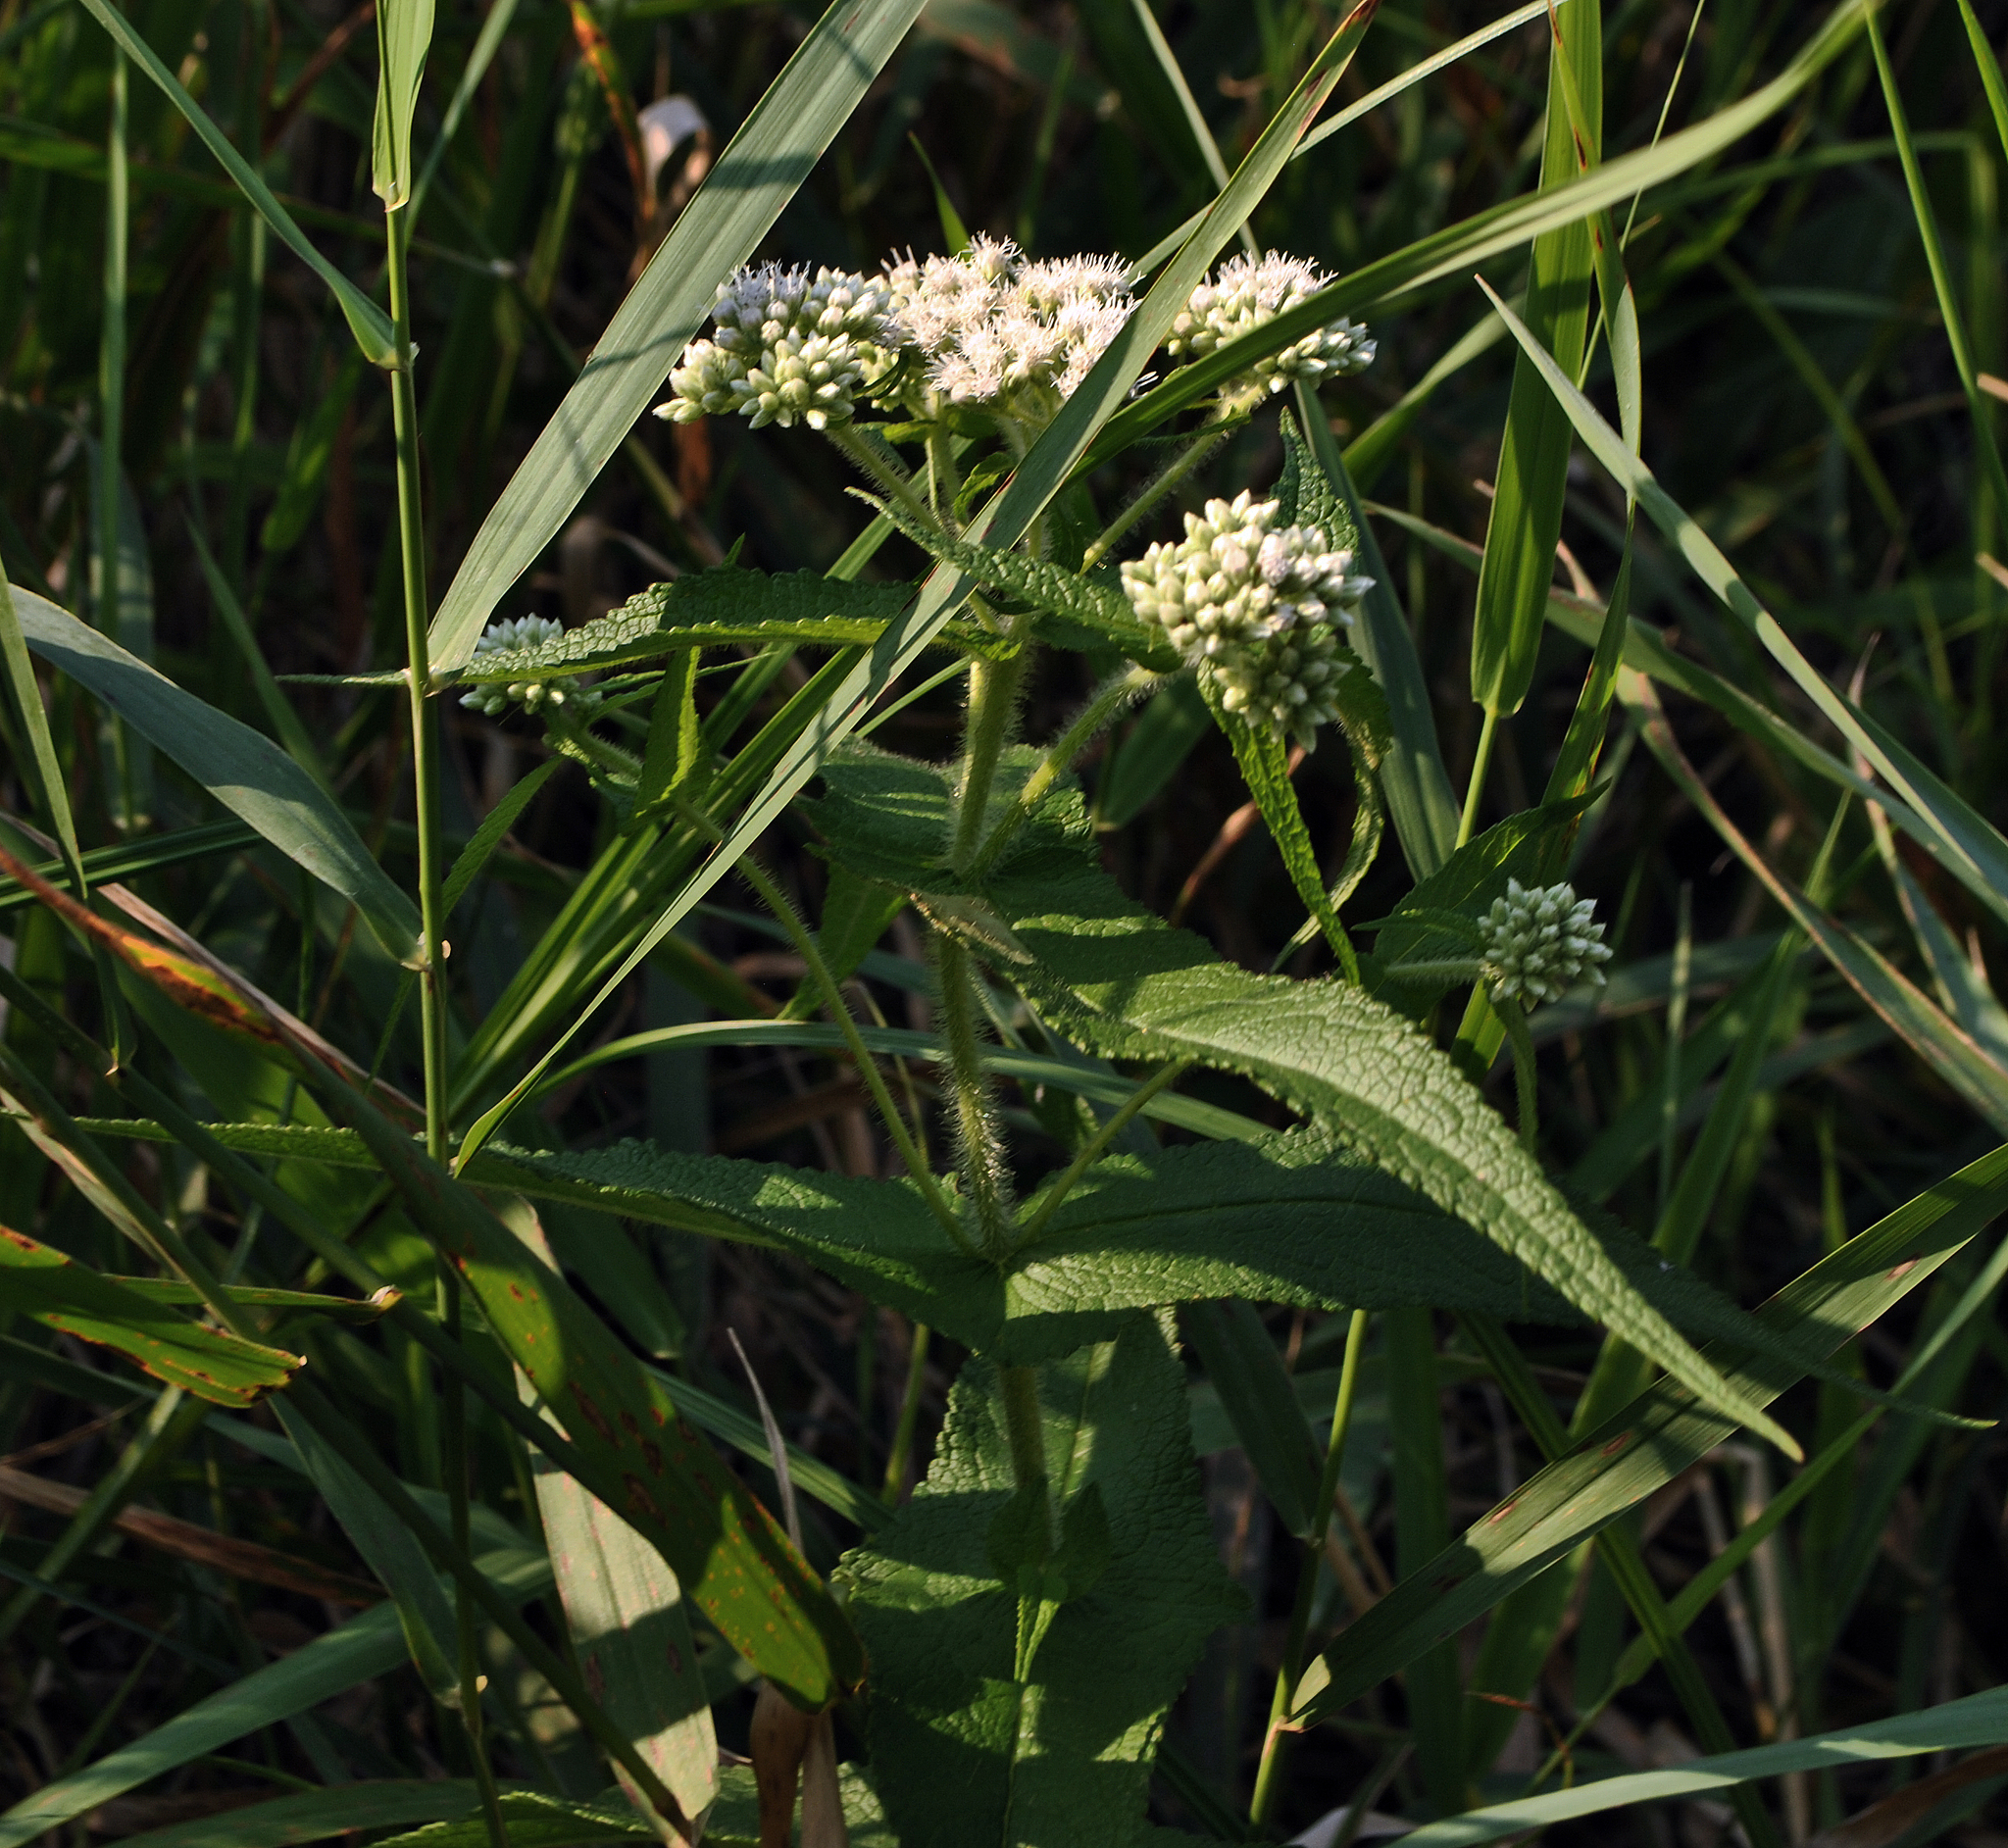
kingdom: Plantae
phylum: Tracheophyta
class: Magnoliopsida
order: Asterales
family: Asteraceae
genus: Eupatorium
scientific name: Eupatorium perfoliatum
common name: Boneset
